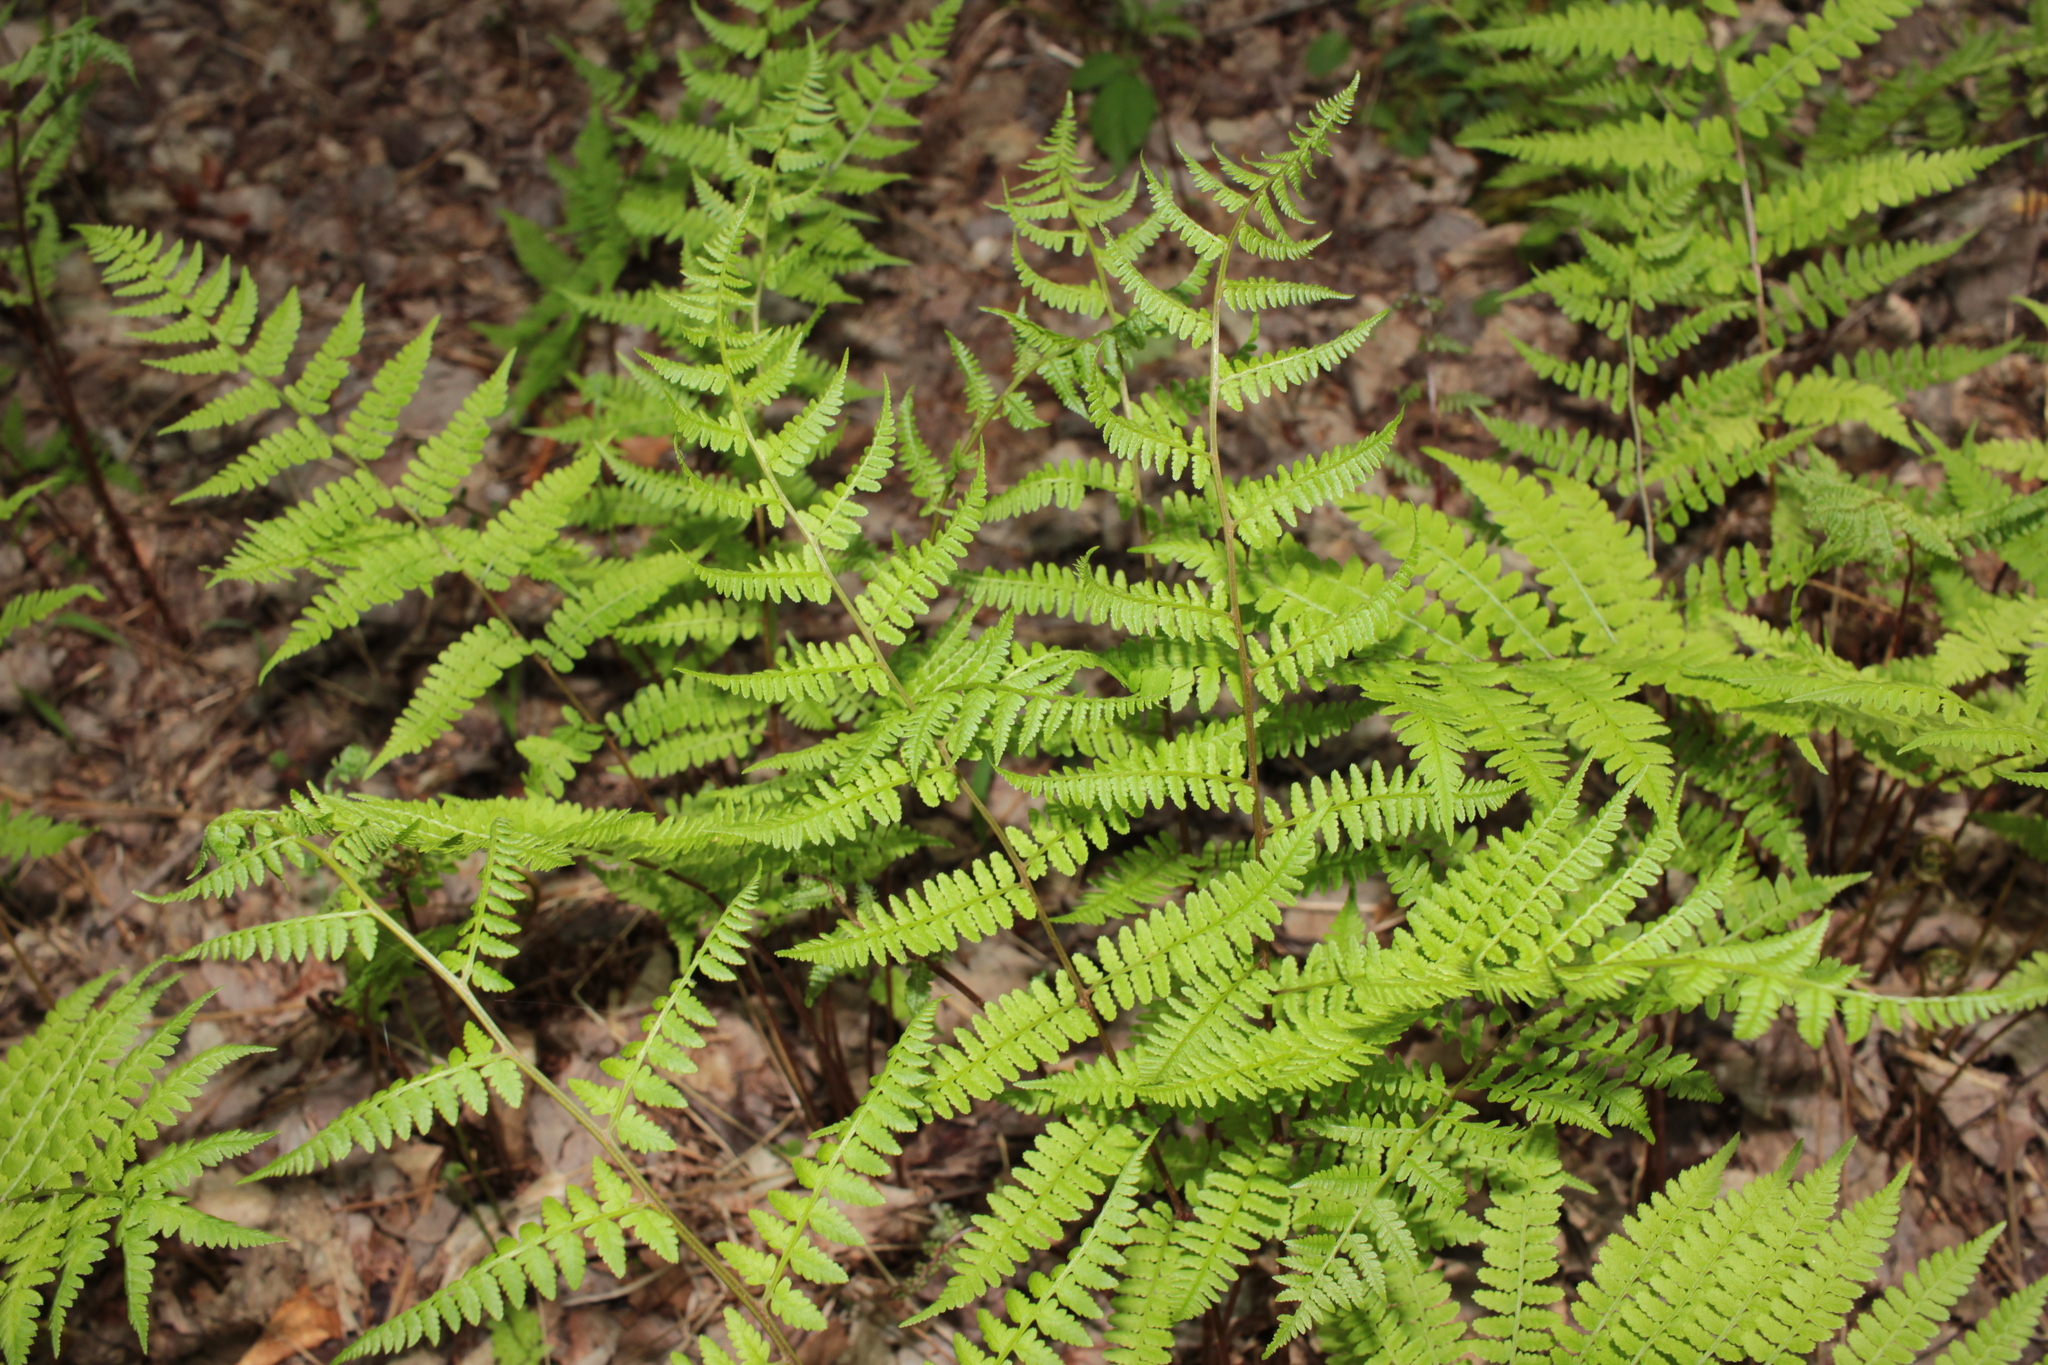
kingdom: Plantae
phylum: Tracheophyta
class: Polypodiopsida
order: Polypodiales
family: Athyriaceae
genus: Athyrium
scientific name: Athyrium asplenioides
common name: Southern lady fern
